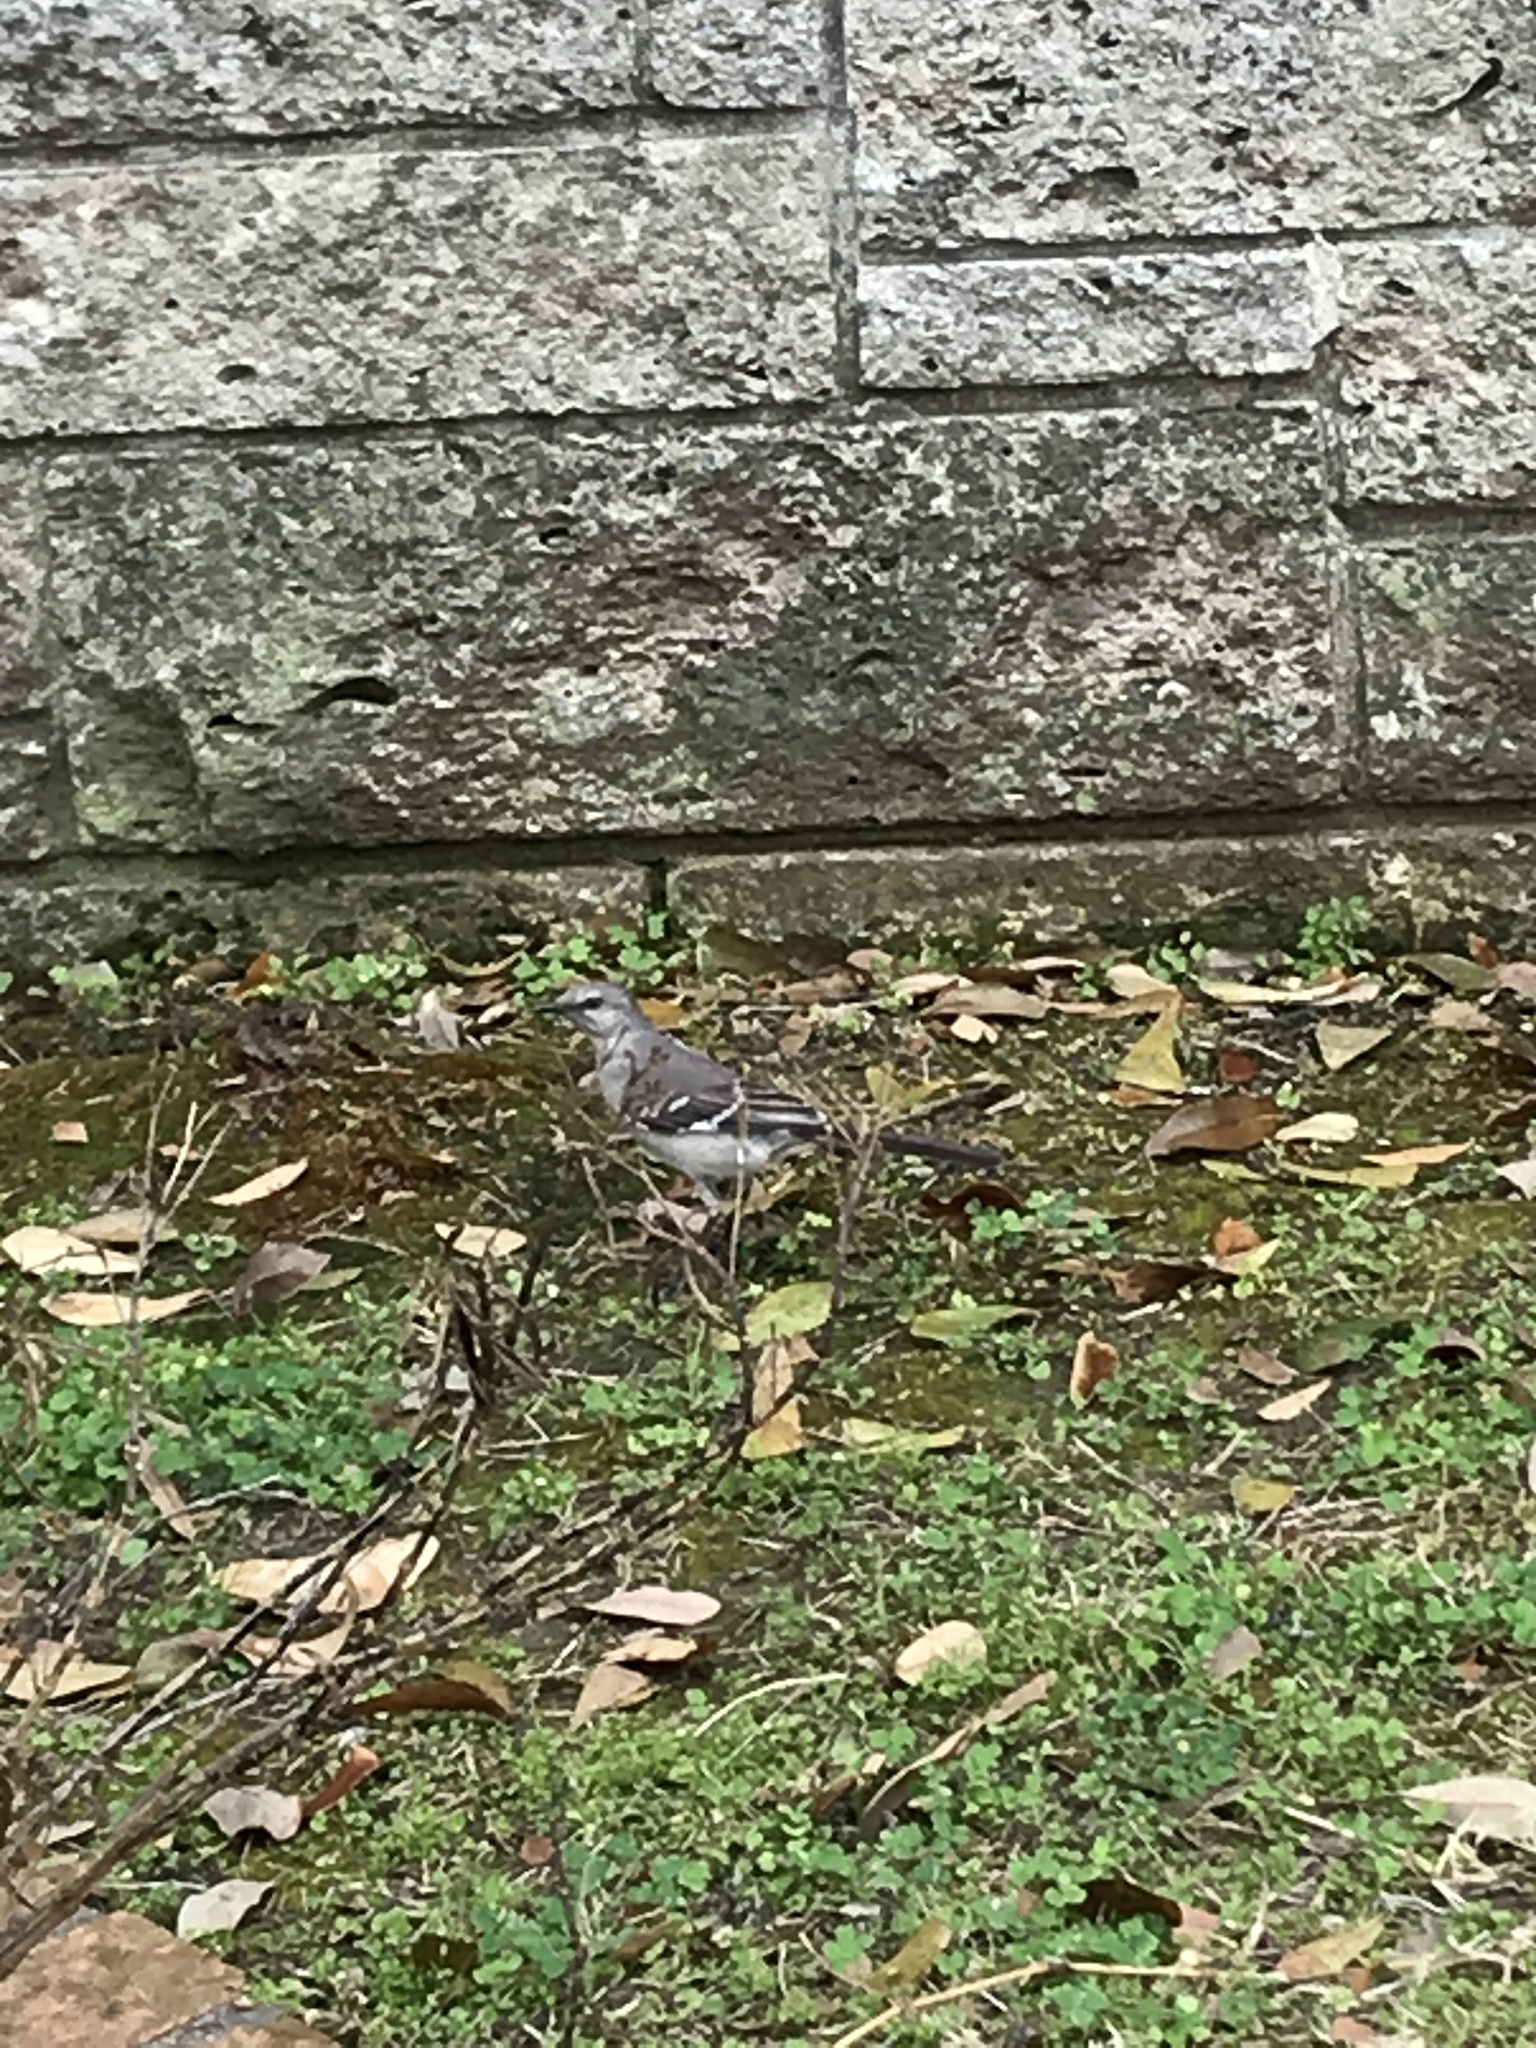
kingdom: Animalia
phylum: Chordata
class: Aves
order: Passeriformes
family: Mimidae
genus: Mimus
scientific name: Mimus polyglottos
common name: Northern mockingbird
